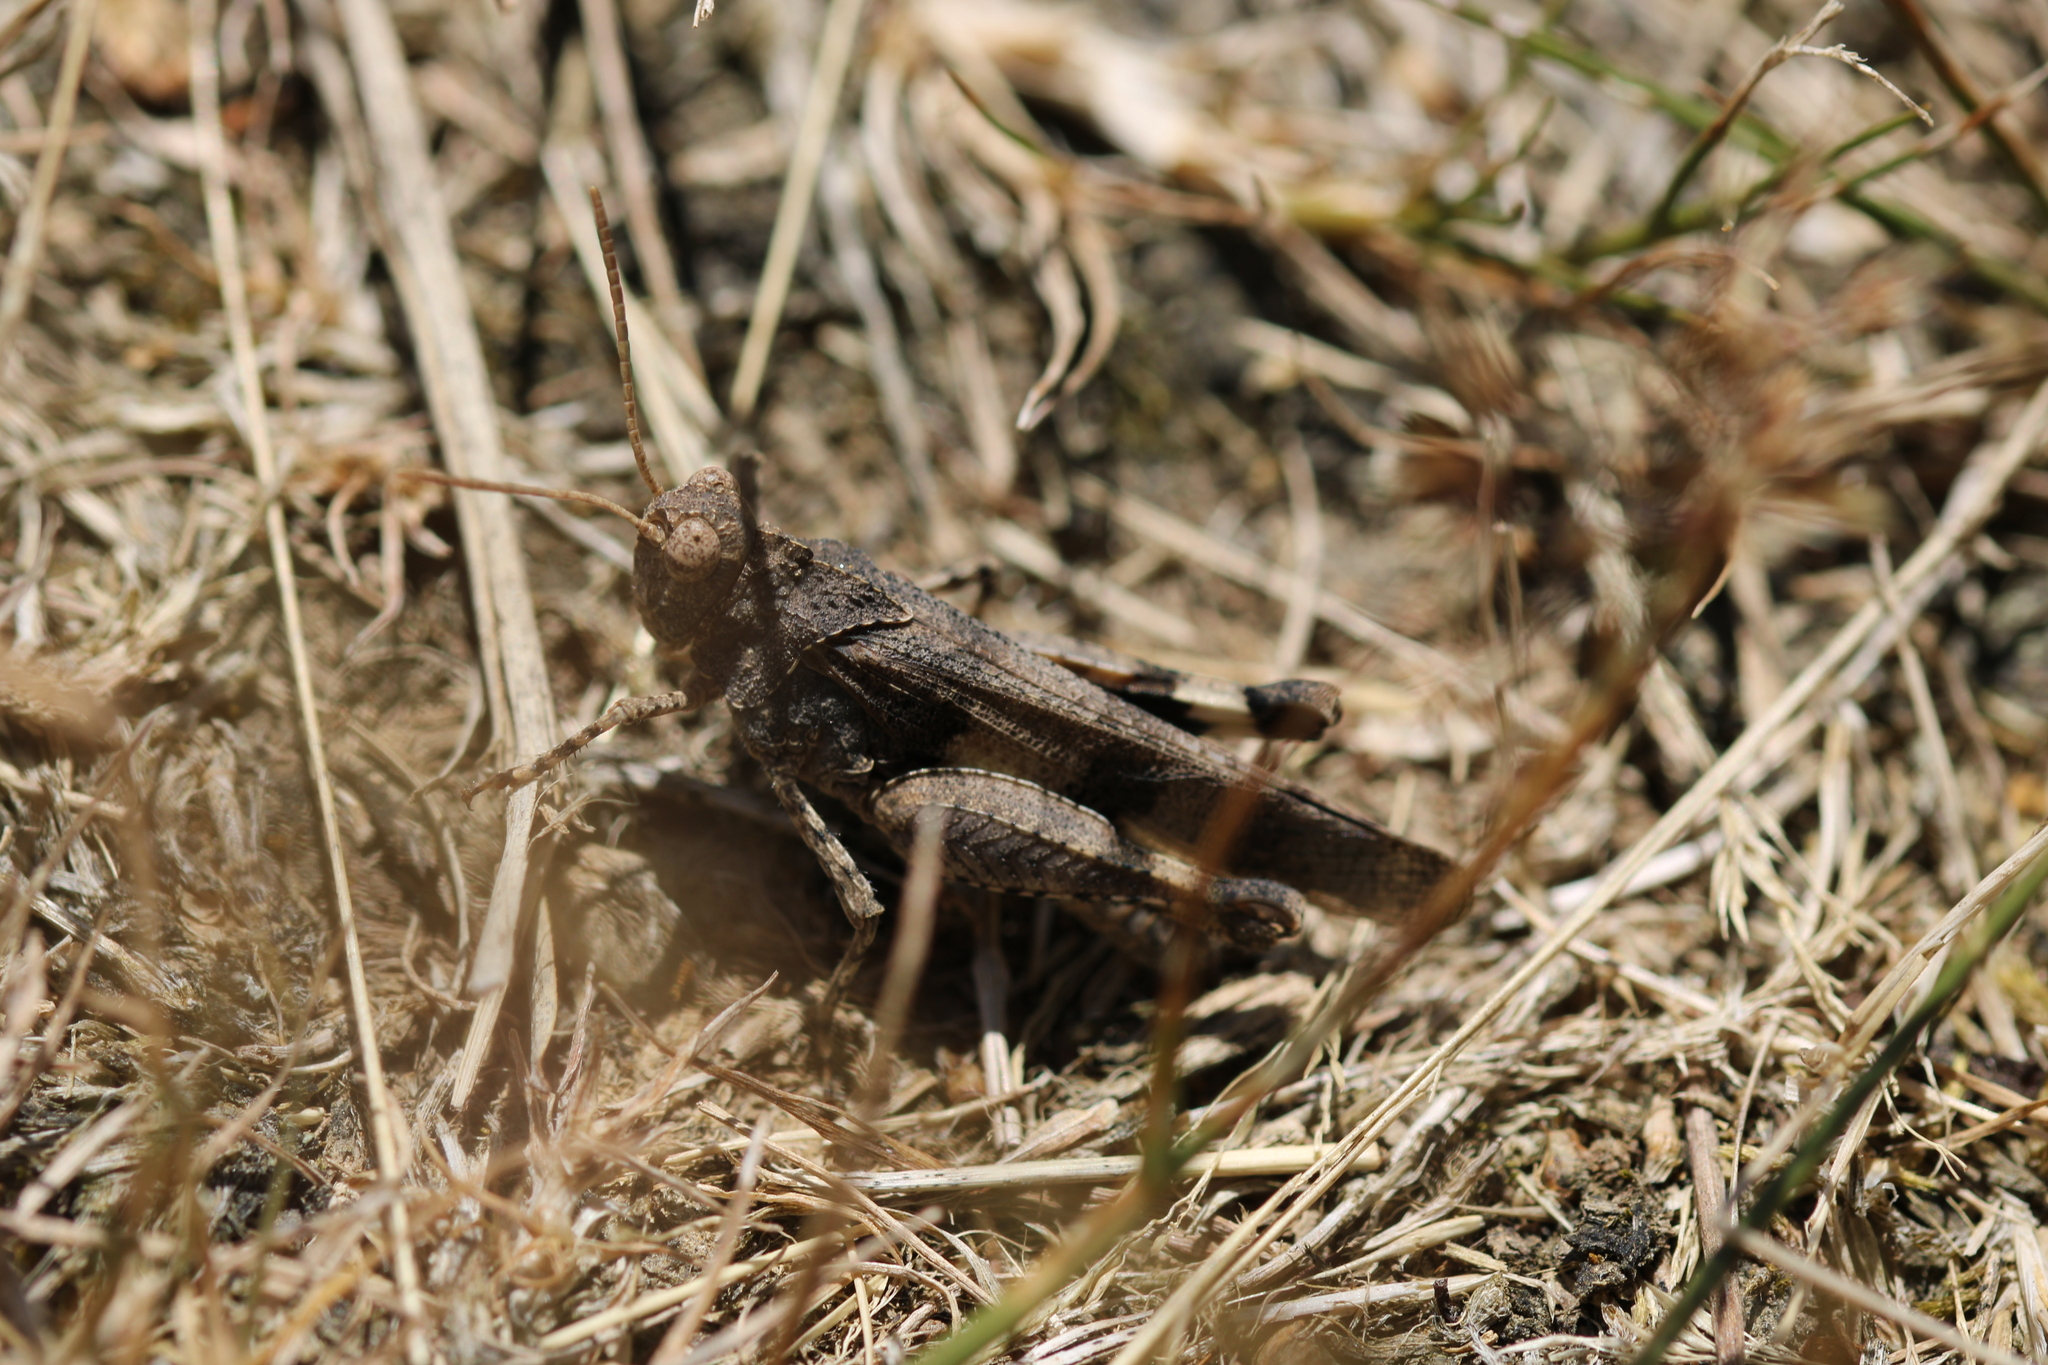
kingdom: Animalia
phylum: Arthropoda
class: Insecta
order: Orthoptera
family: Acrididae
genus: Oedipoda
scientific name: Oedipoda caerulescens
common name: Blue-winged grasshopper
